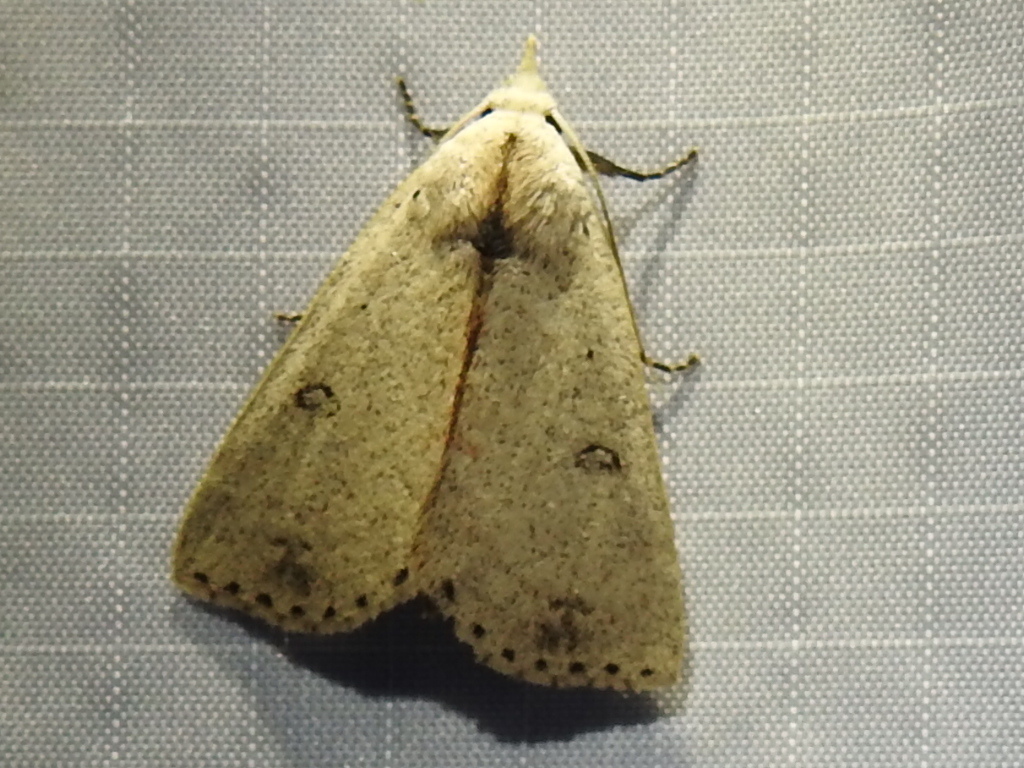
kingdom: Animalia
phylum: Arthropoda
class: Insecta
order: Lepidoptera
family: Erebidae
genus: Scolecocampa
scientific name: Scolecocampa liburna
